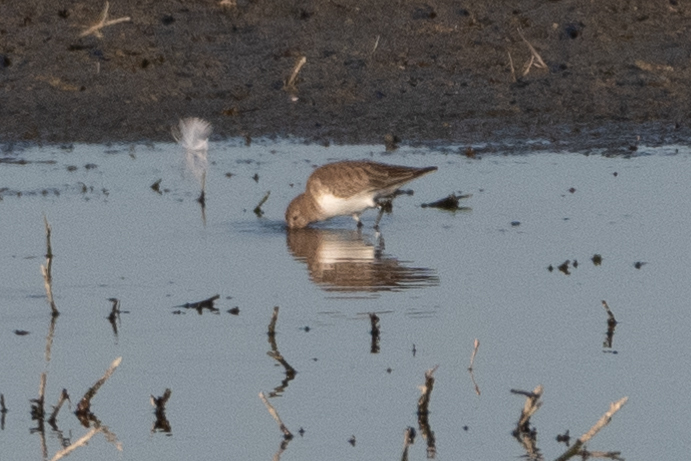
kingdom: Animalia
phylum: Chordata
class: Aves
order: Charadriiformes
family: Scolopacidae
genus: Calidris
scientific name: Calidris alpina
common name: Dunlin
